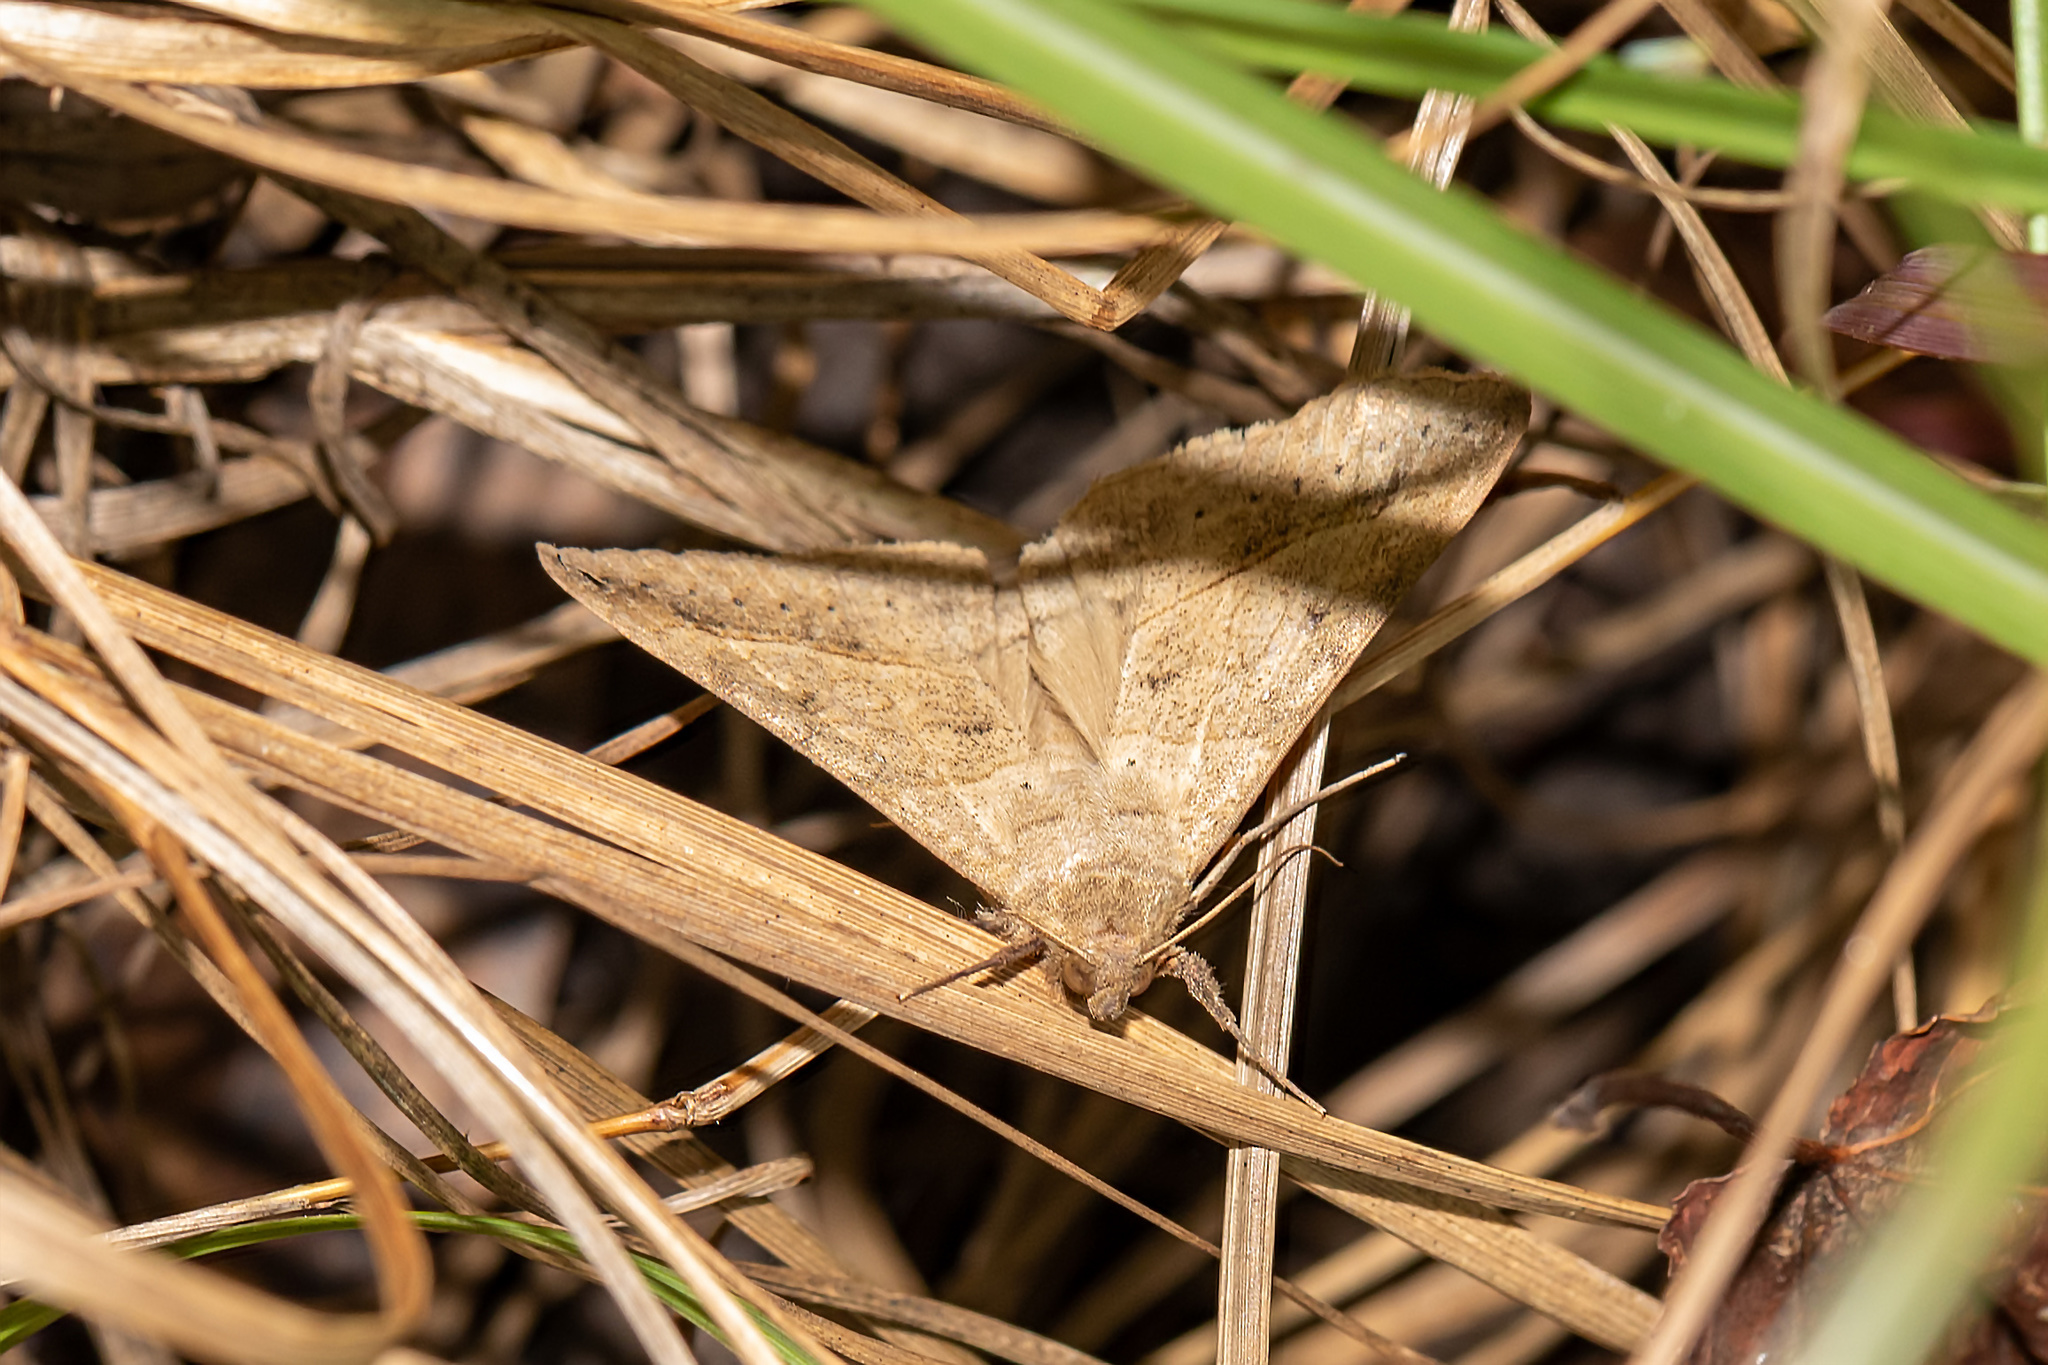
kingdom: Animalia
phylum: Arthropoda
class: Insecta
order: Lepidoptera
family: Erebidae
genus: Mocis
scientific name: Mocis latipes
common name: Striped grass looper
